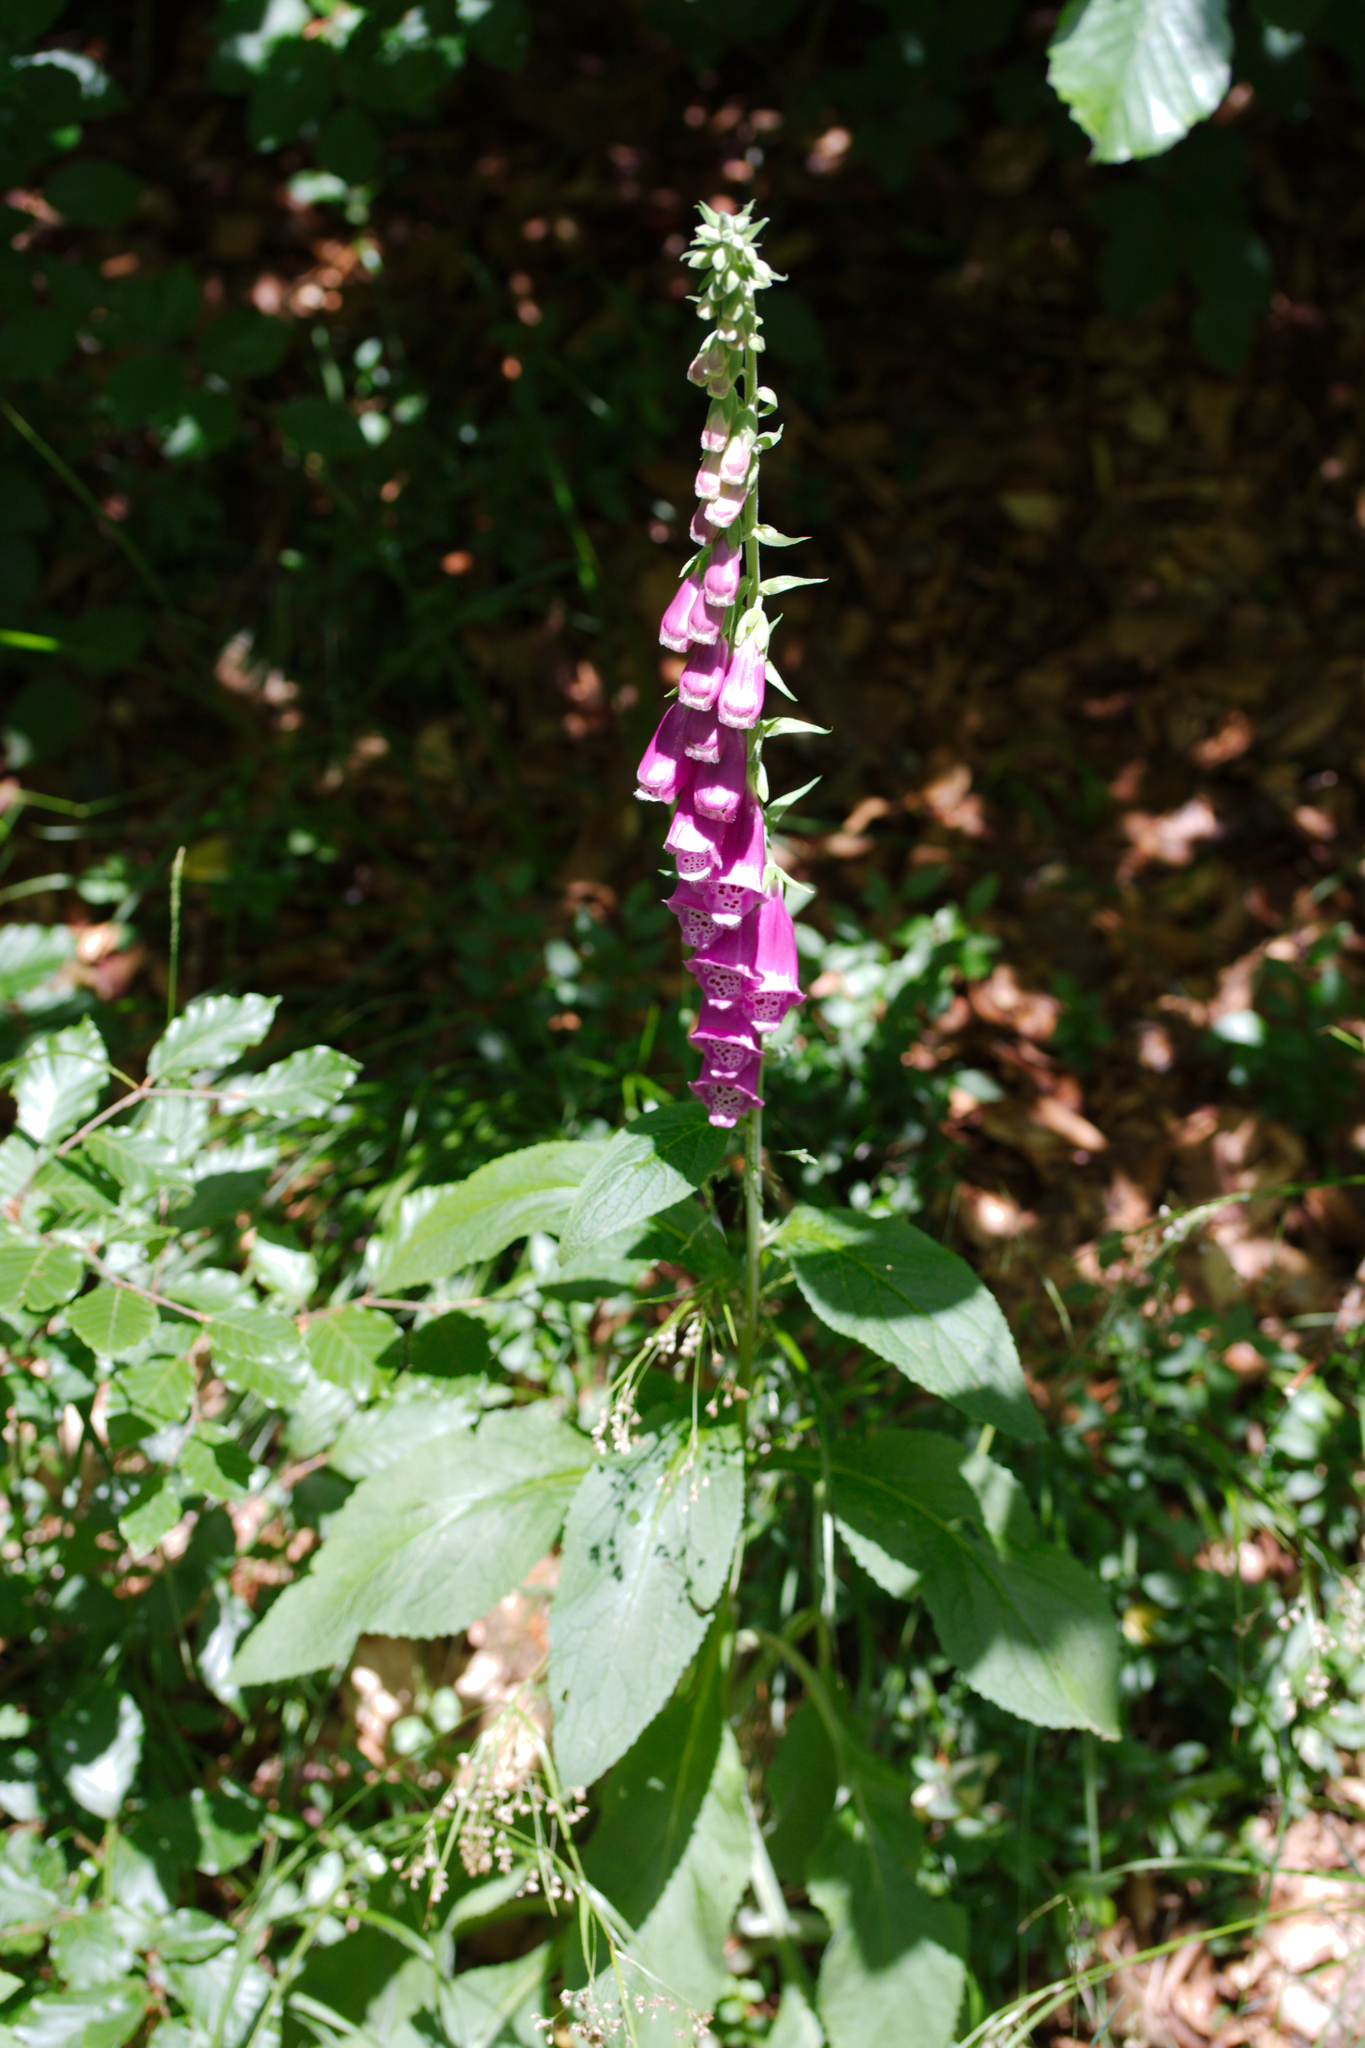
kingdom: Plantae
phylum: Tracheophyta
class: Magnoliopsida
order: Lamiales
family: Plantaginaceae
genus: Digitalis
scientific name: Digitalis purpurea
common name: Foxglove
